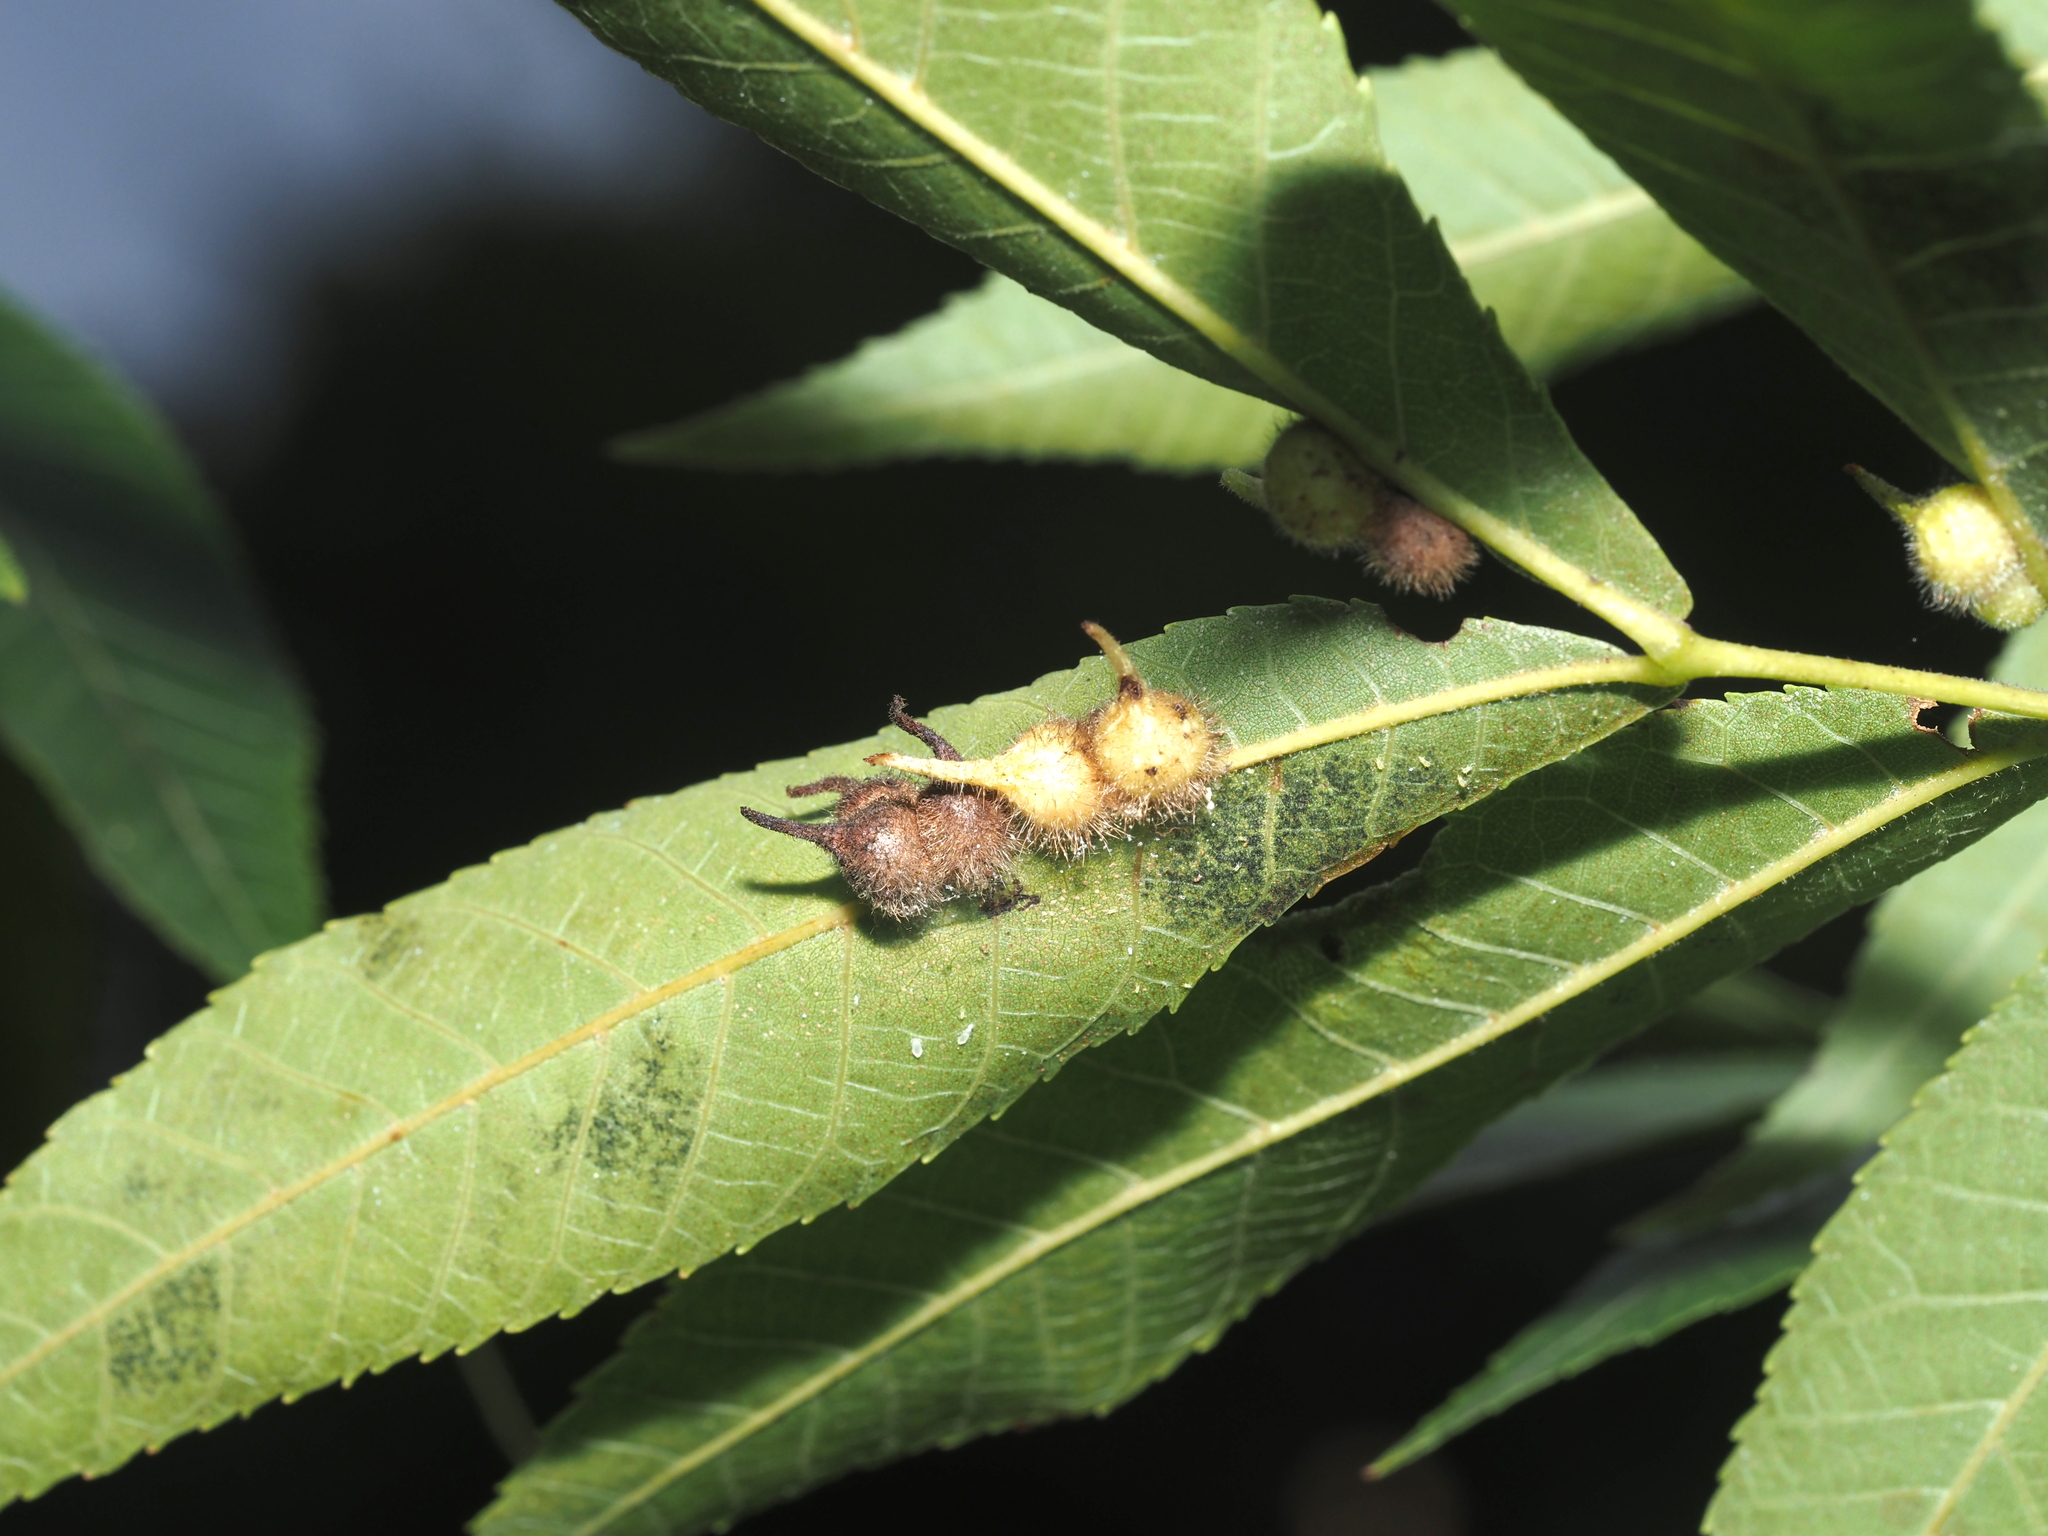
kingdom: Animalia
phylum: Arthropoda
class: Insecta
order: Diptera
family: Cecidomyiidae
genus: Caryomyia
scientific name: Caryomyia ansericollum
